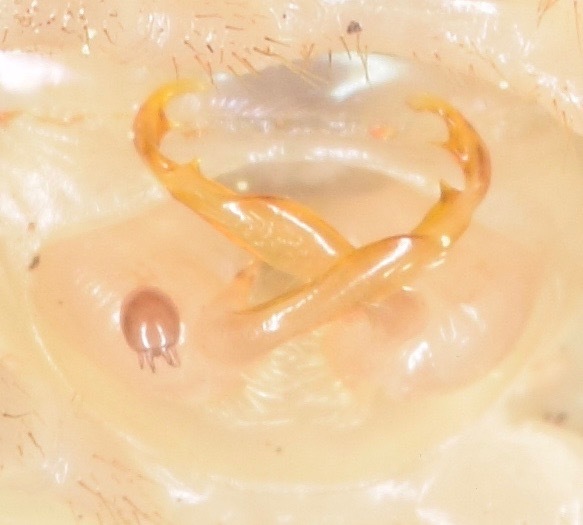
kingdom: Animalia
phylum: Arthropoda
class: Diplopoda
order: Polydesmida
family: Xystodesmidae
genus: Sigmoria
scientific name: Sigmoria disjuncta
